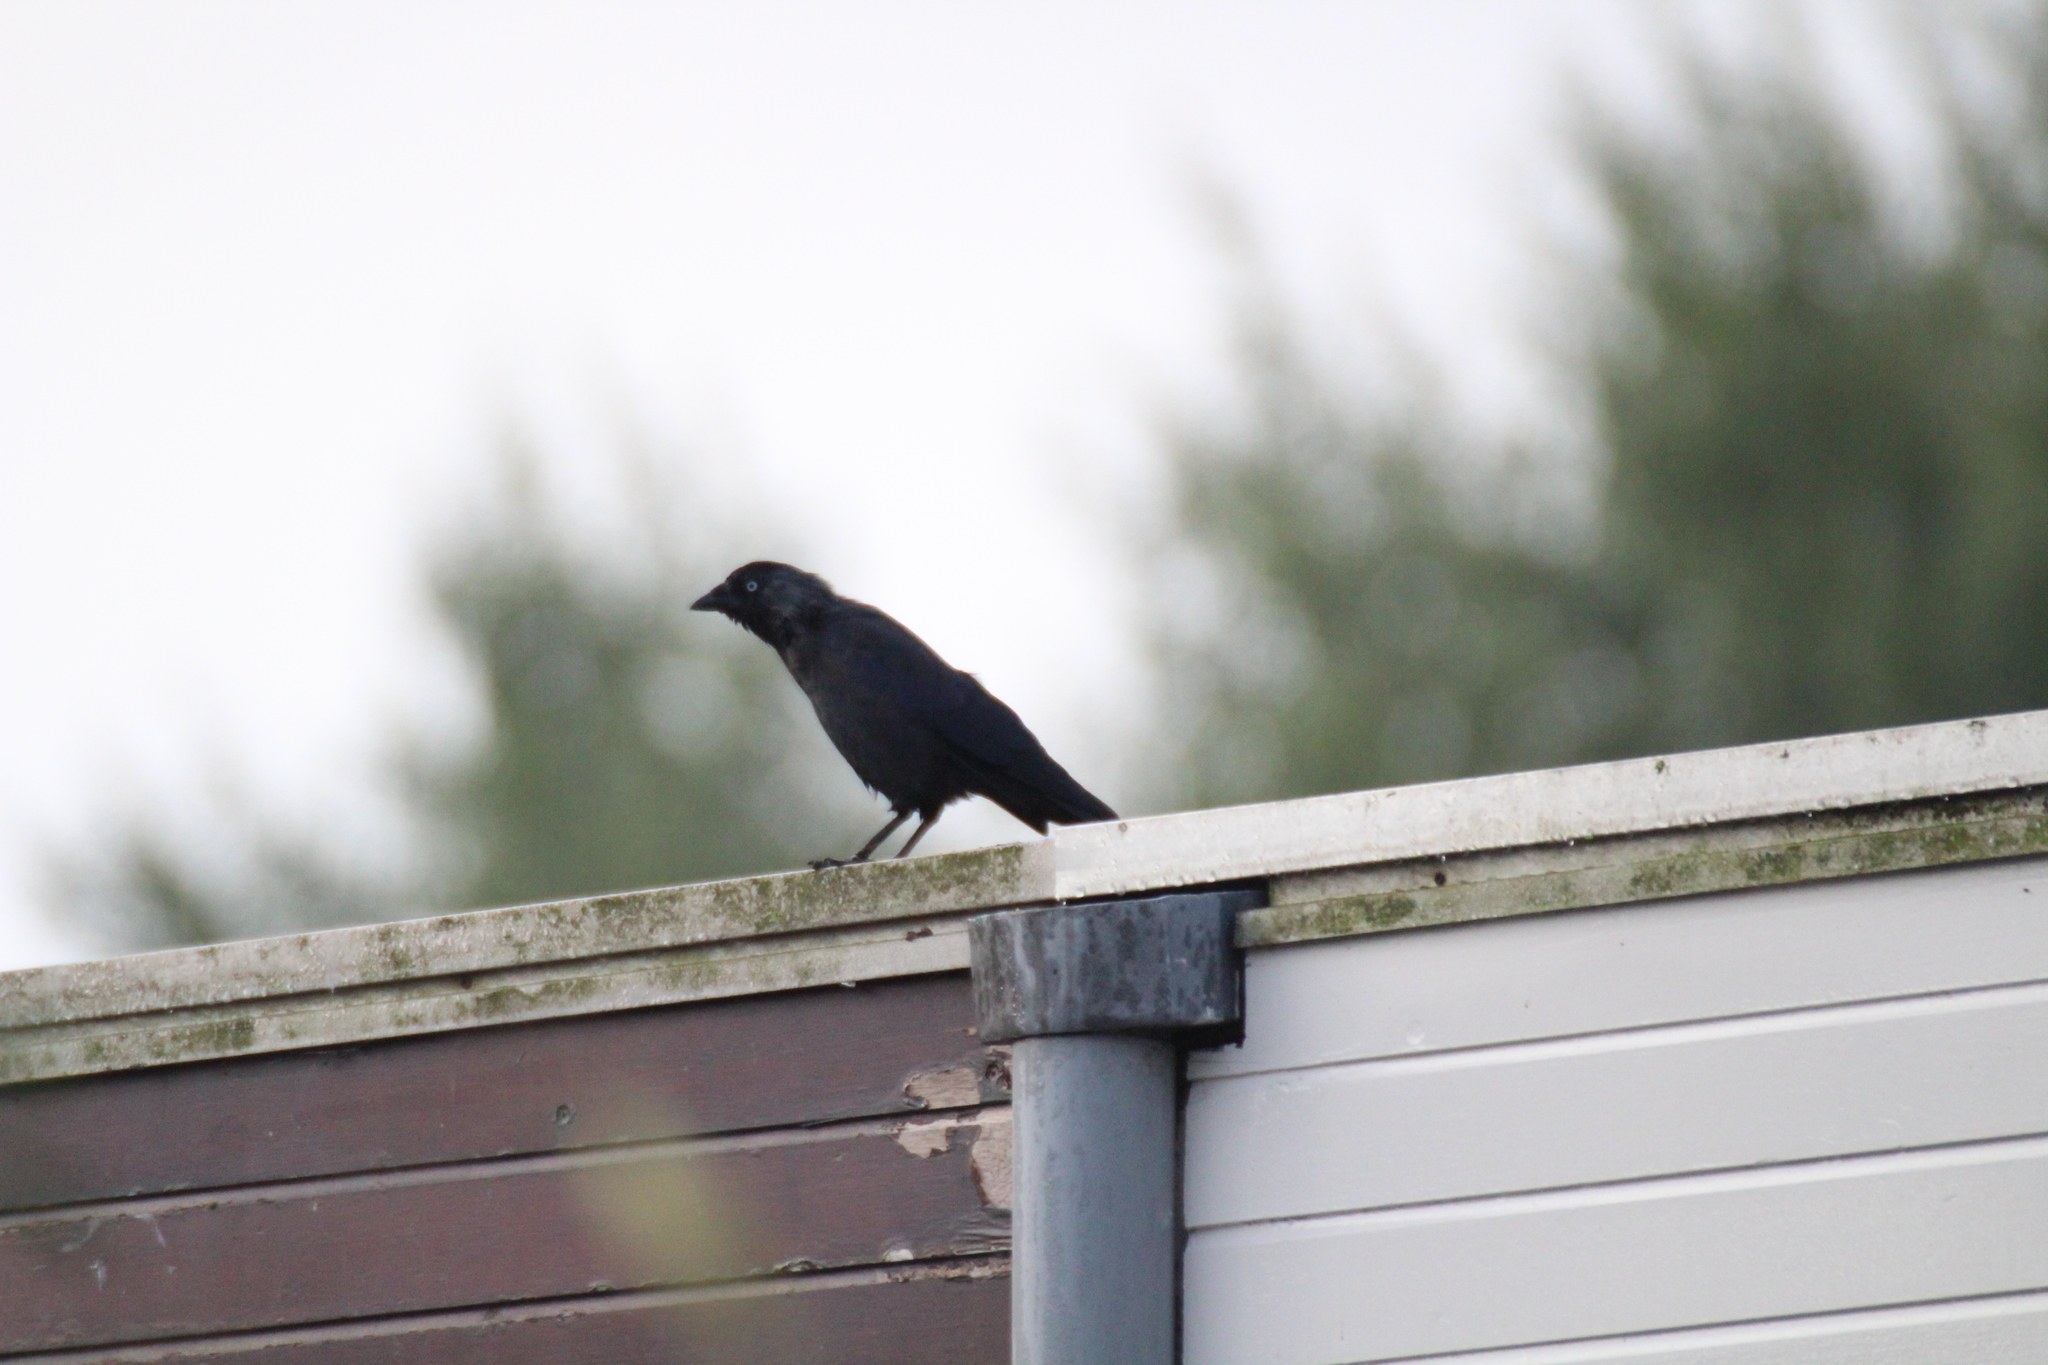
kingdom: Animalia
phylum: Chordata
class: Aves
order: Passeriformes
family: Corvidae
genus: Coloeus
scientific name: Coloeus monedula
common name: Western jackdaw
